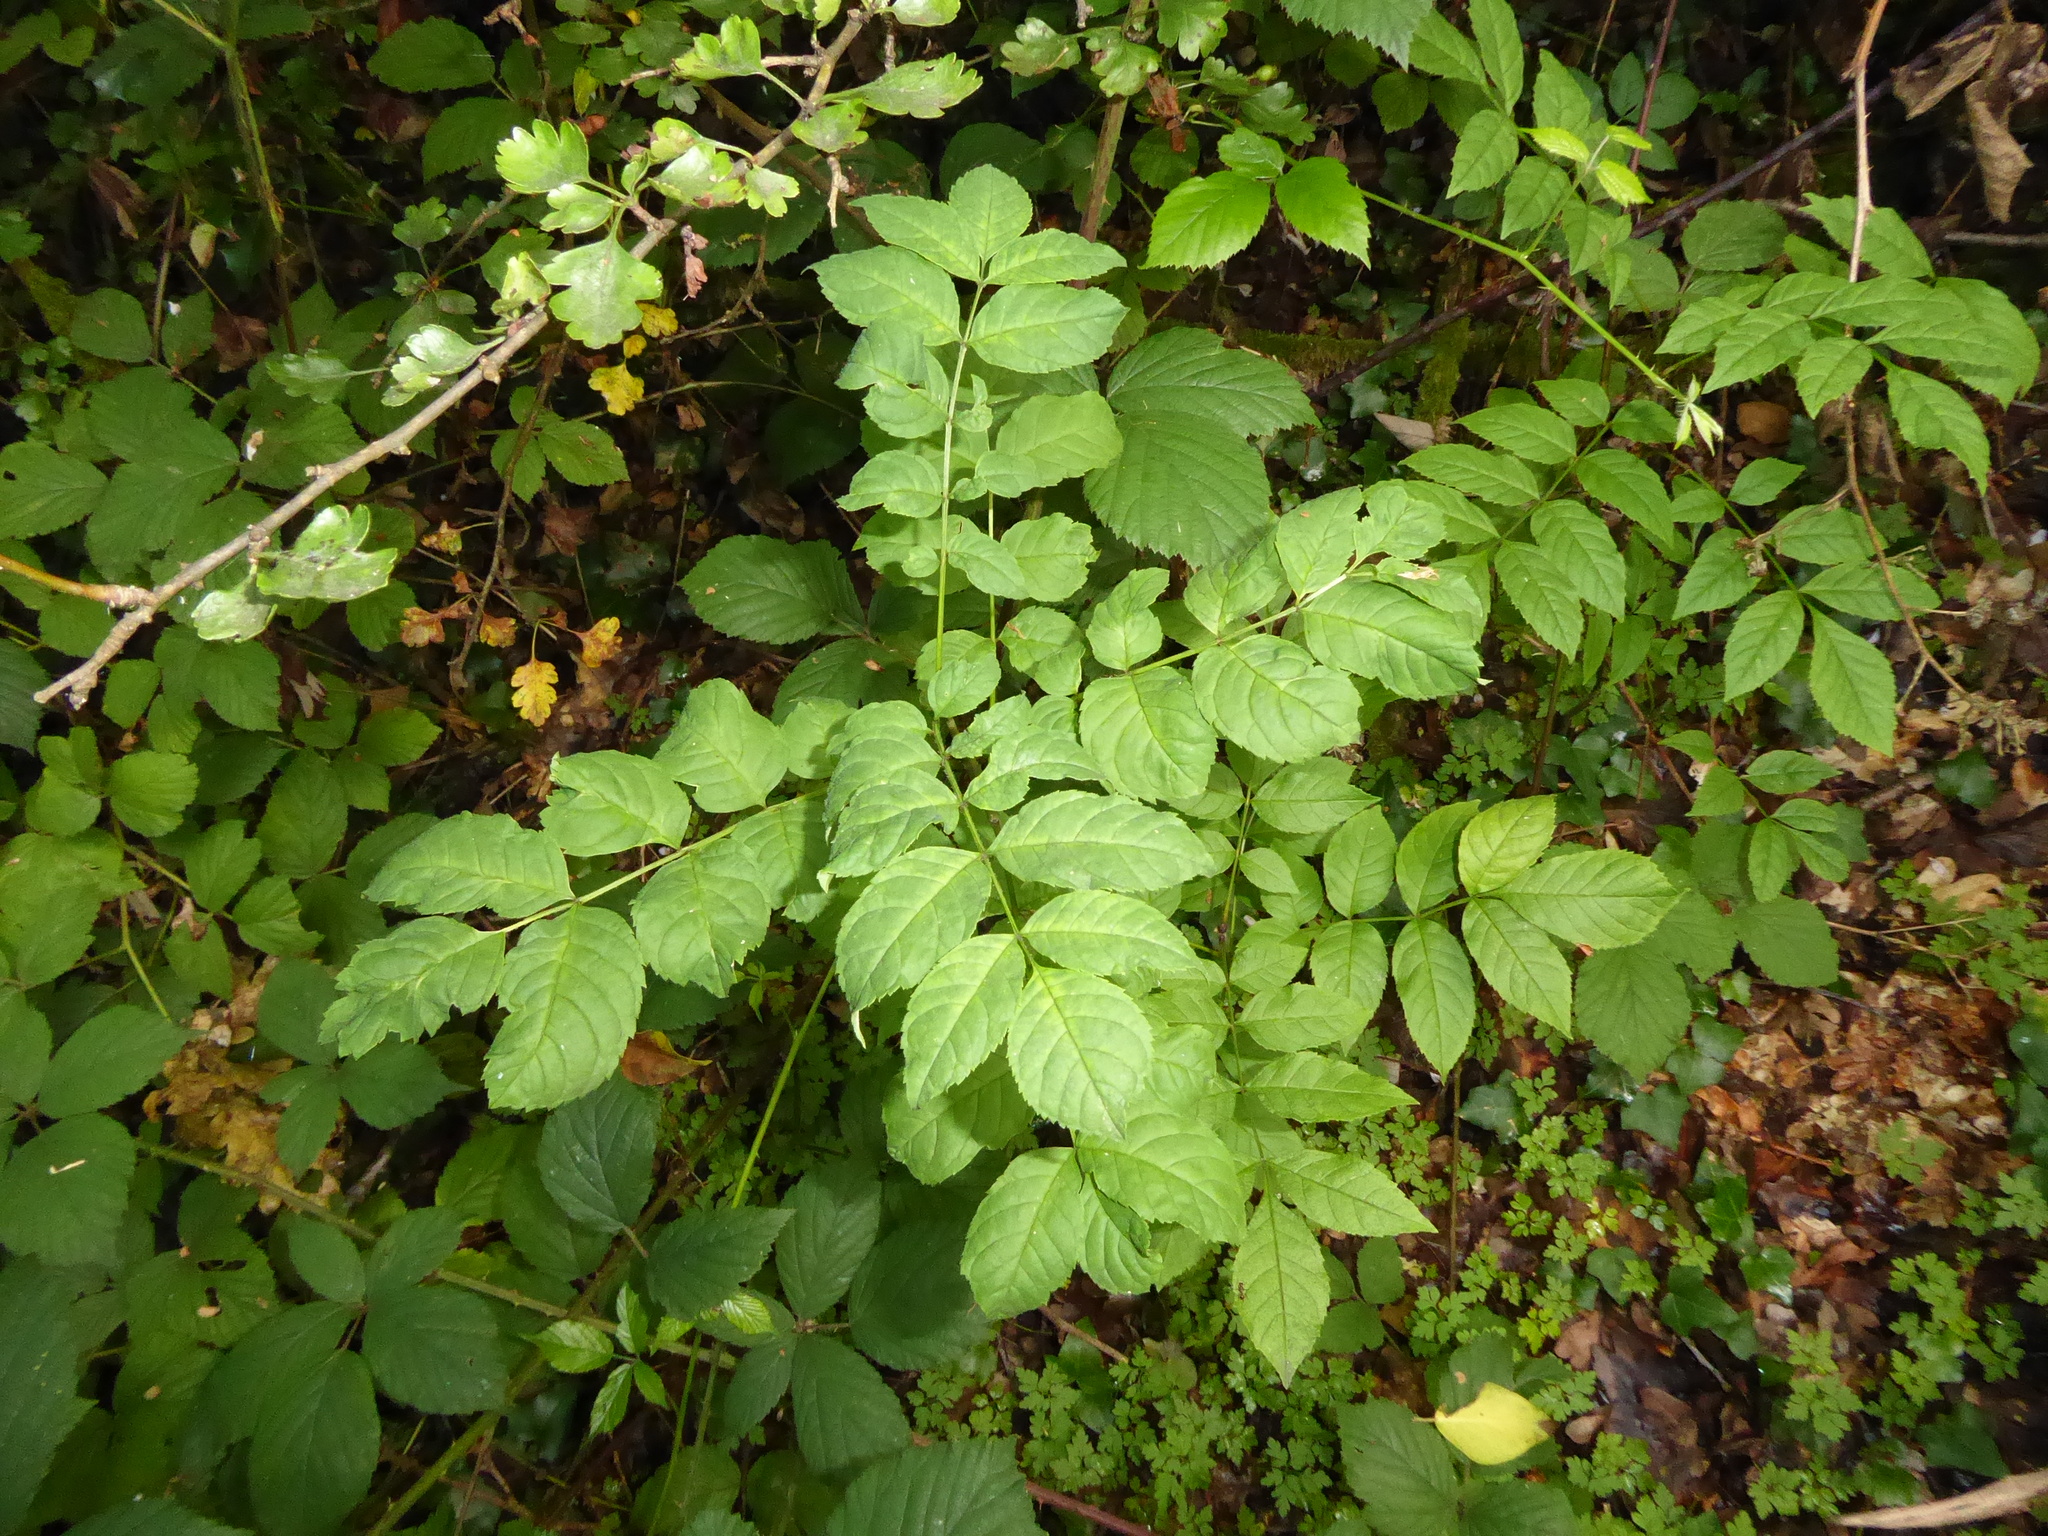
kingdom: Plantae
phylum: Tracheophyta
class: Magnoliopsida
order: Lamiales
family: Oleaceae
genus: Fraxinus
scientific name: Fraxinus excelsior
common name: European ash
